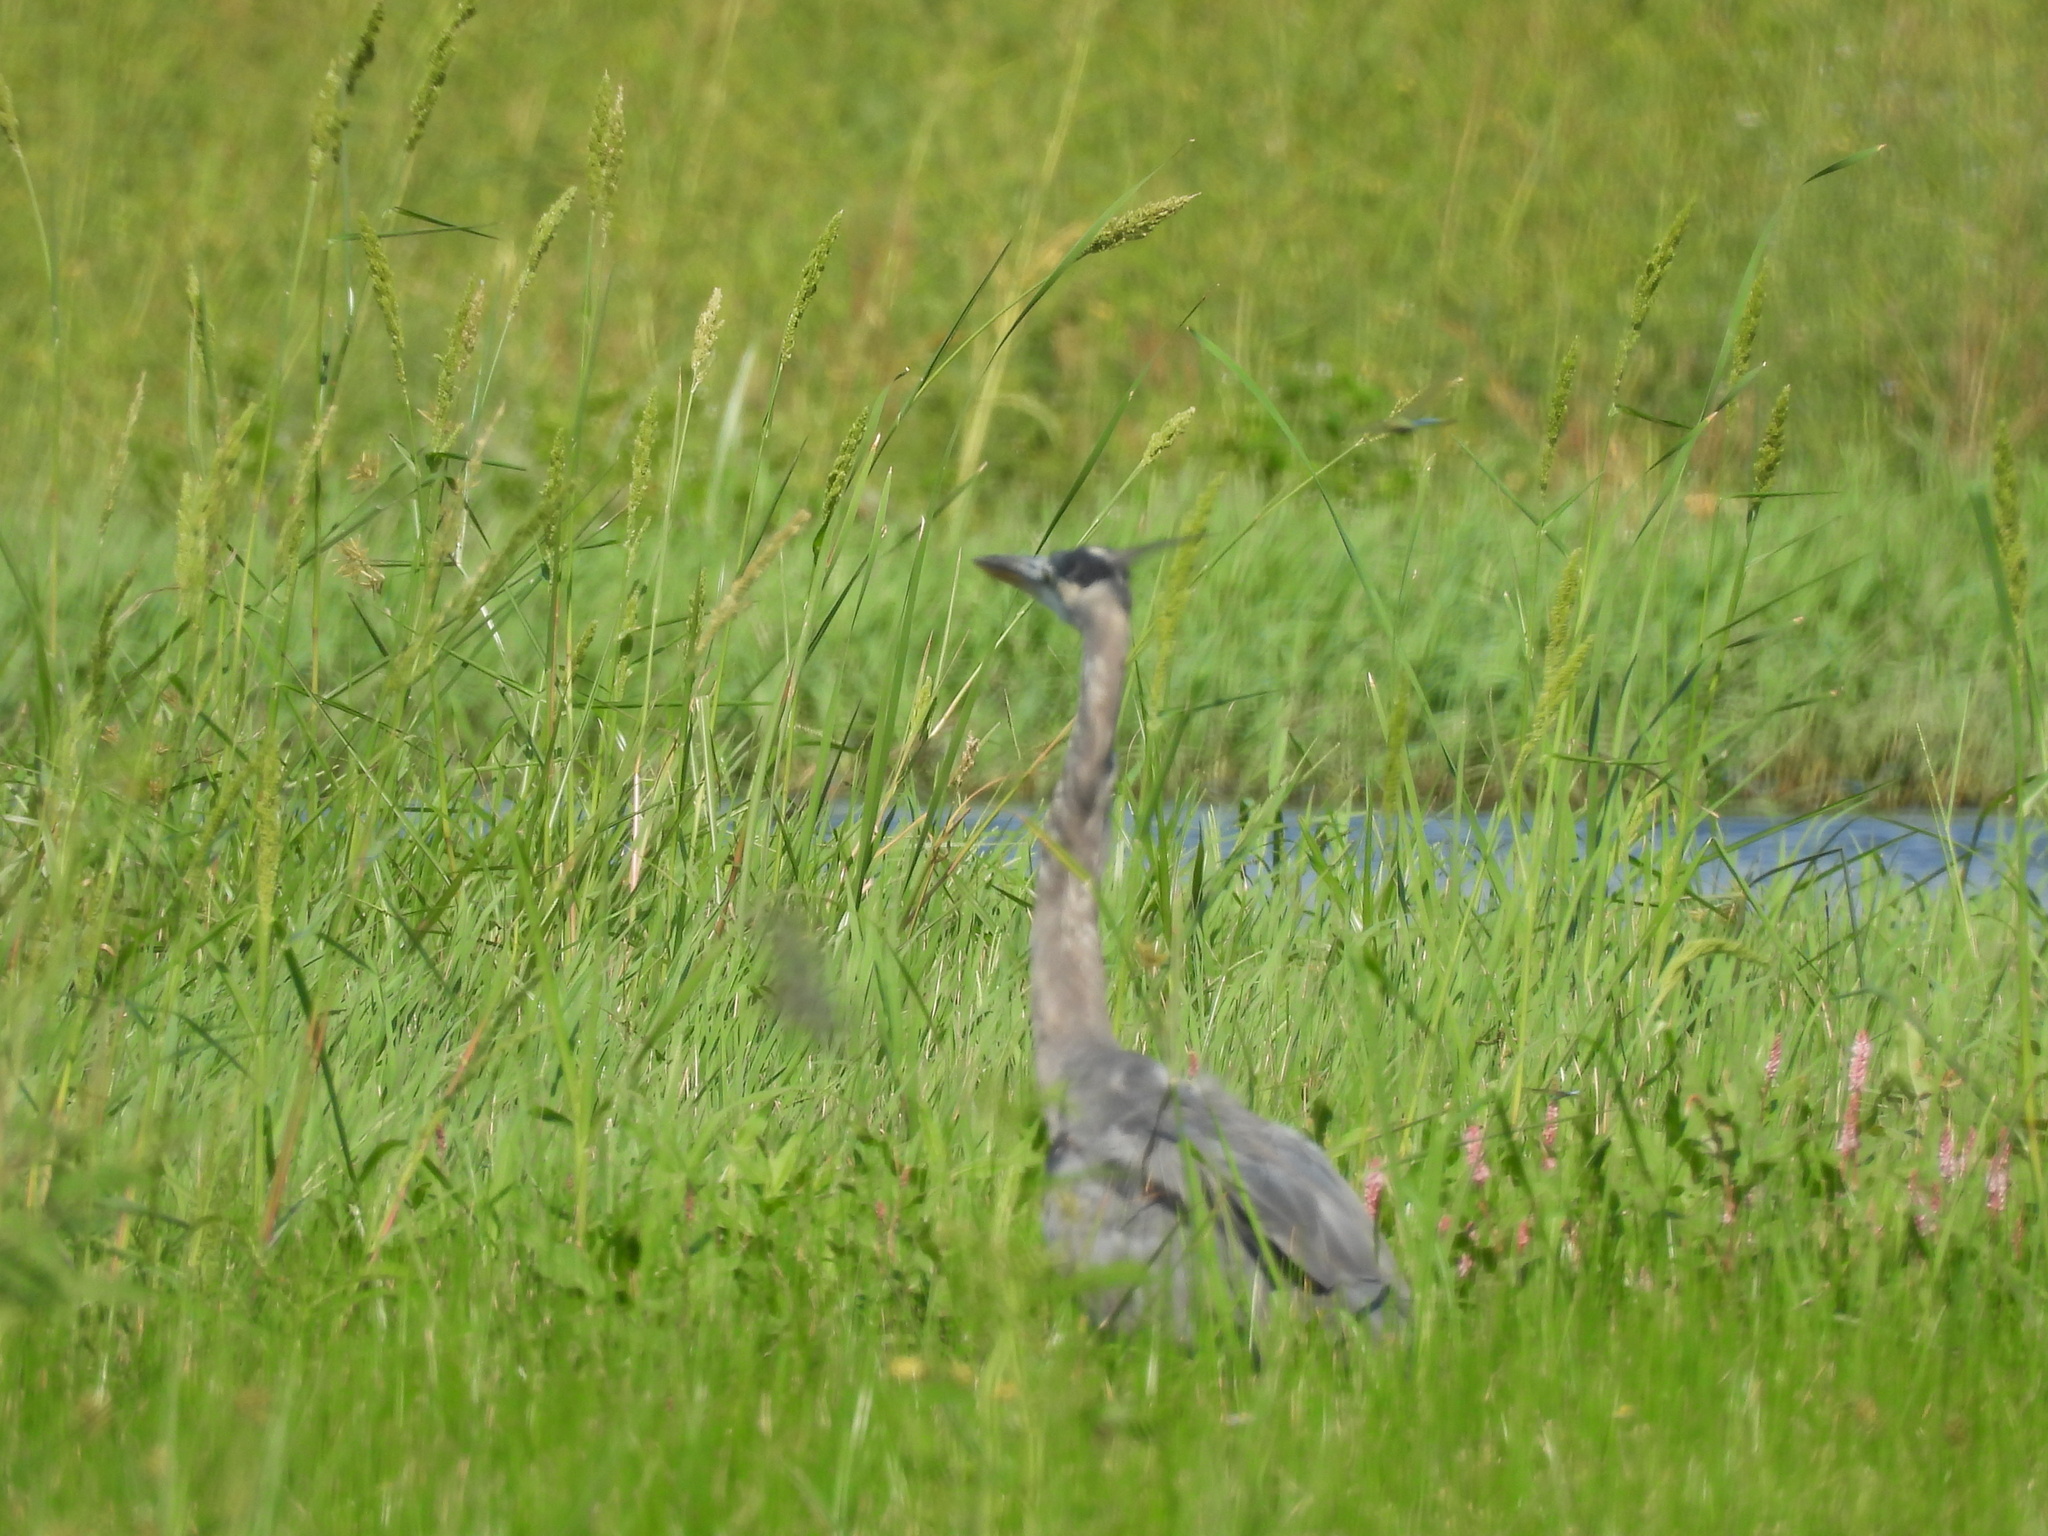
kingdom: Animalia
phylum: Chordata
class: Aves
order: Pelecaniformes
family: Ardeidae
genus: Ardea
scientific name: Ardea herodias
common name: Great blue heron
